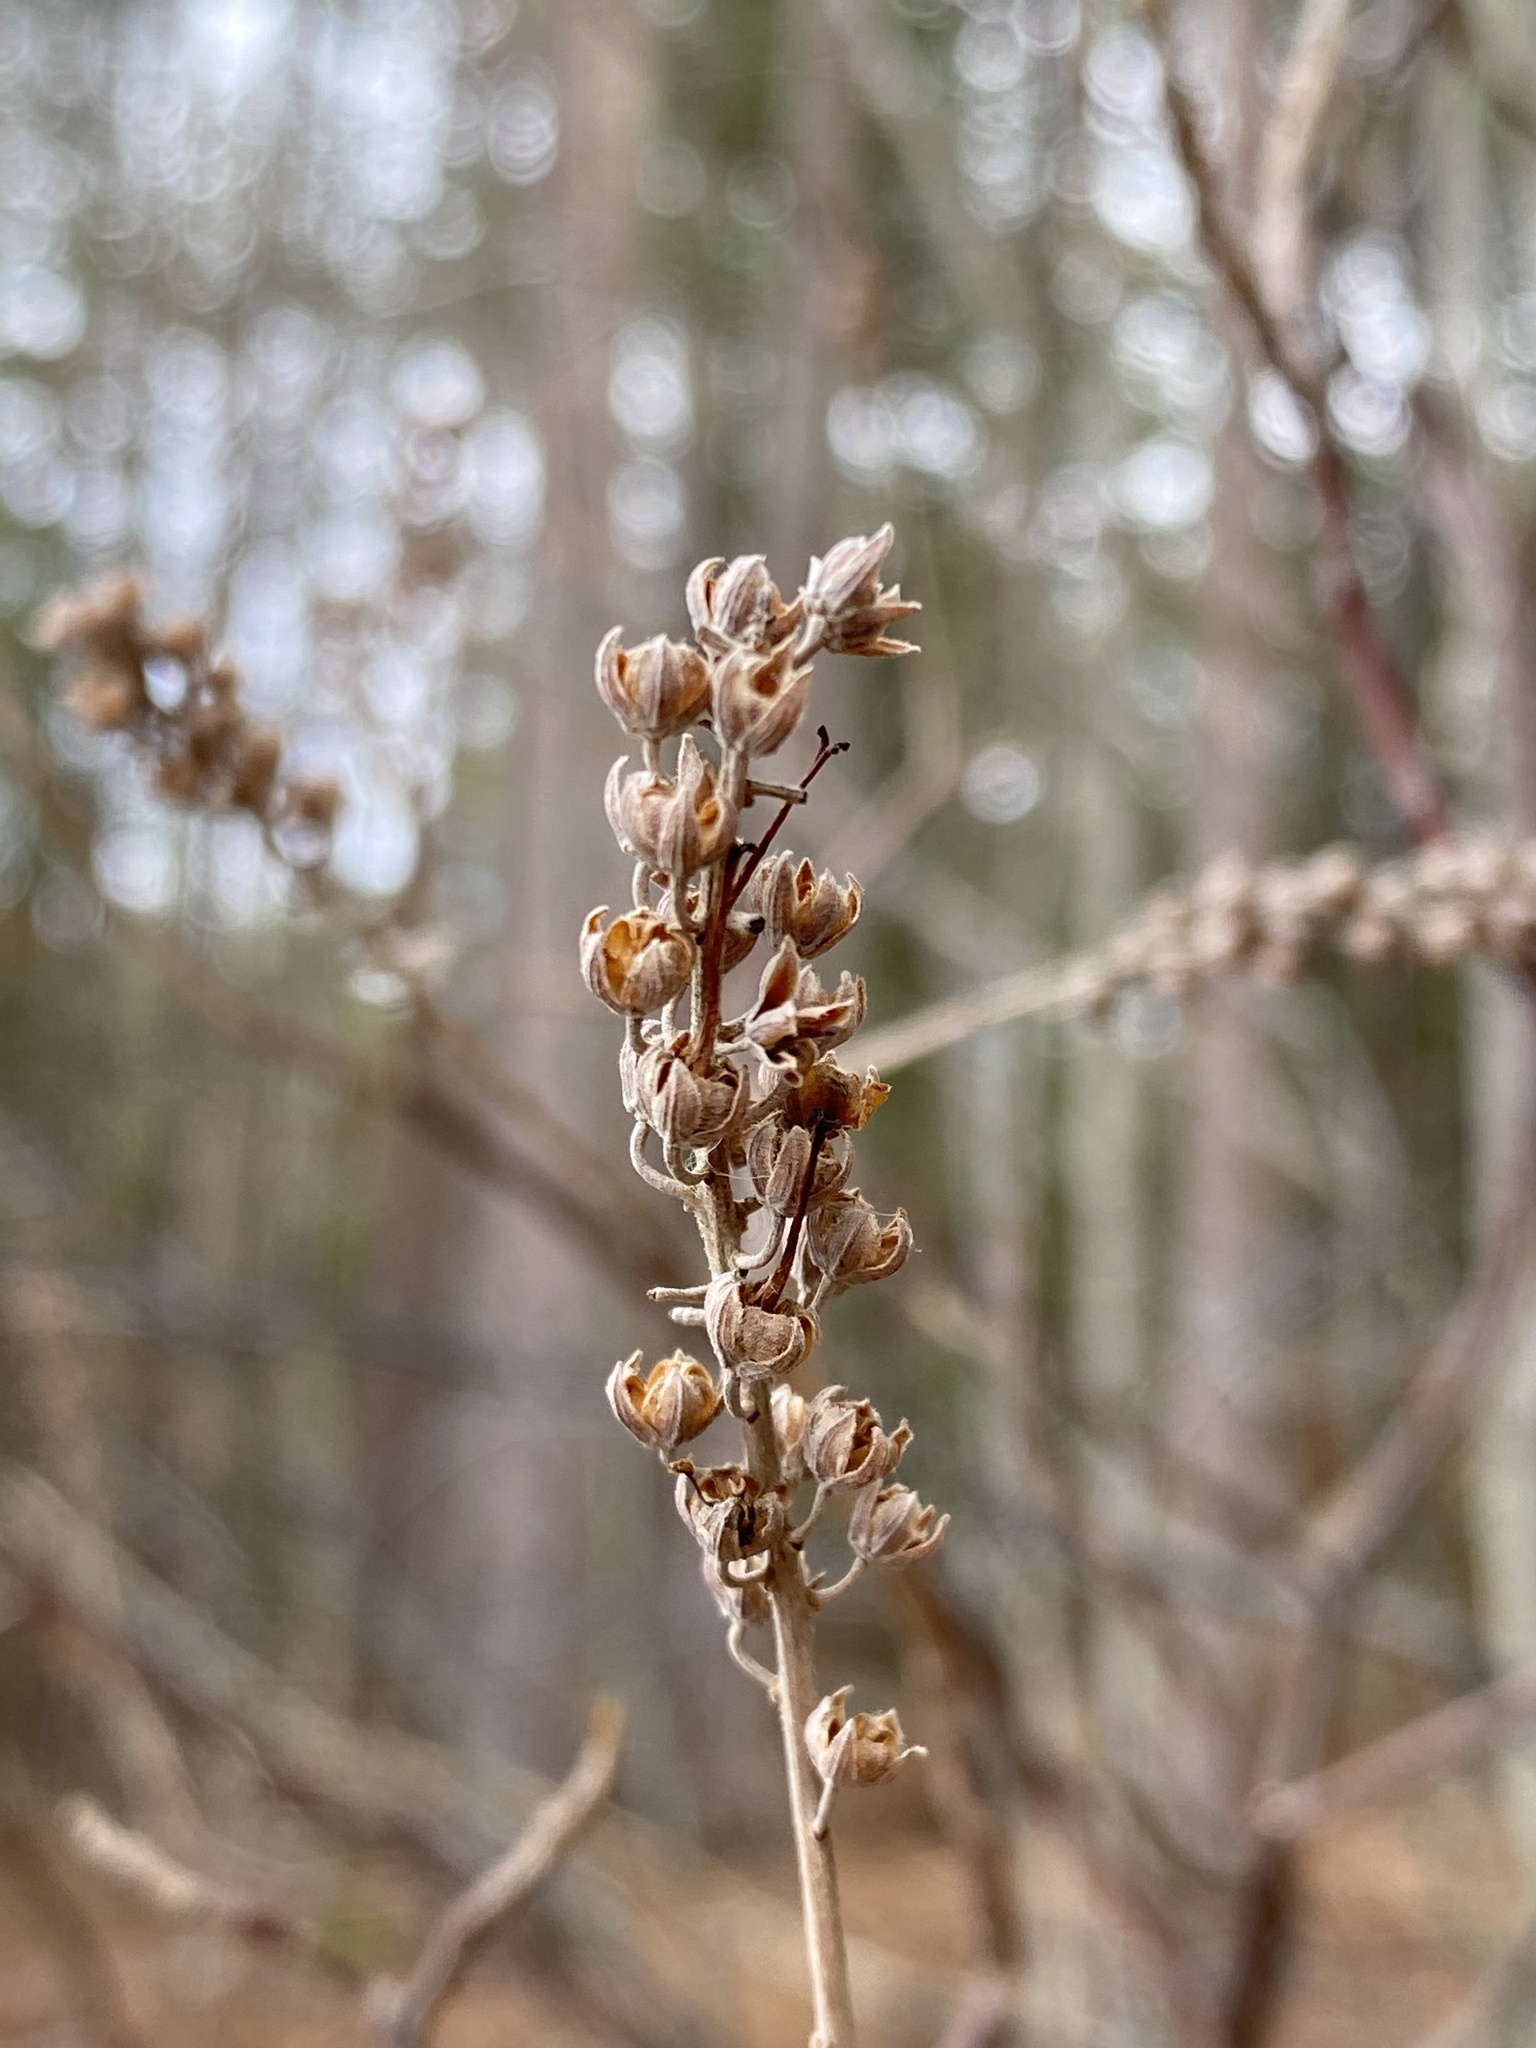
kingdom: Plantae
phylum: Tracheophyta
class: Magnoliopsida
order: Ericales
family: Clethraceae
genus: Clethra
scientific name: Clethra alnifolia
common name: Sweet pepperbush
